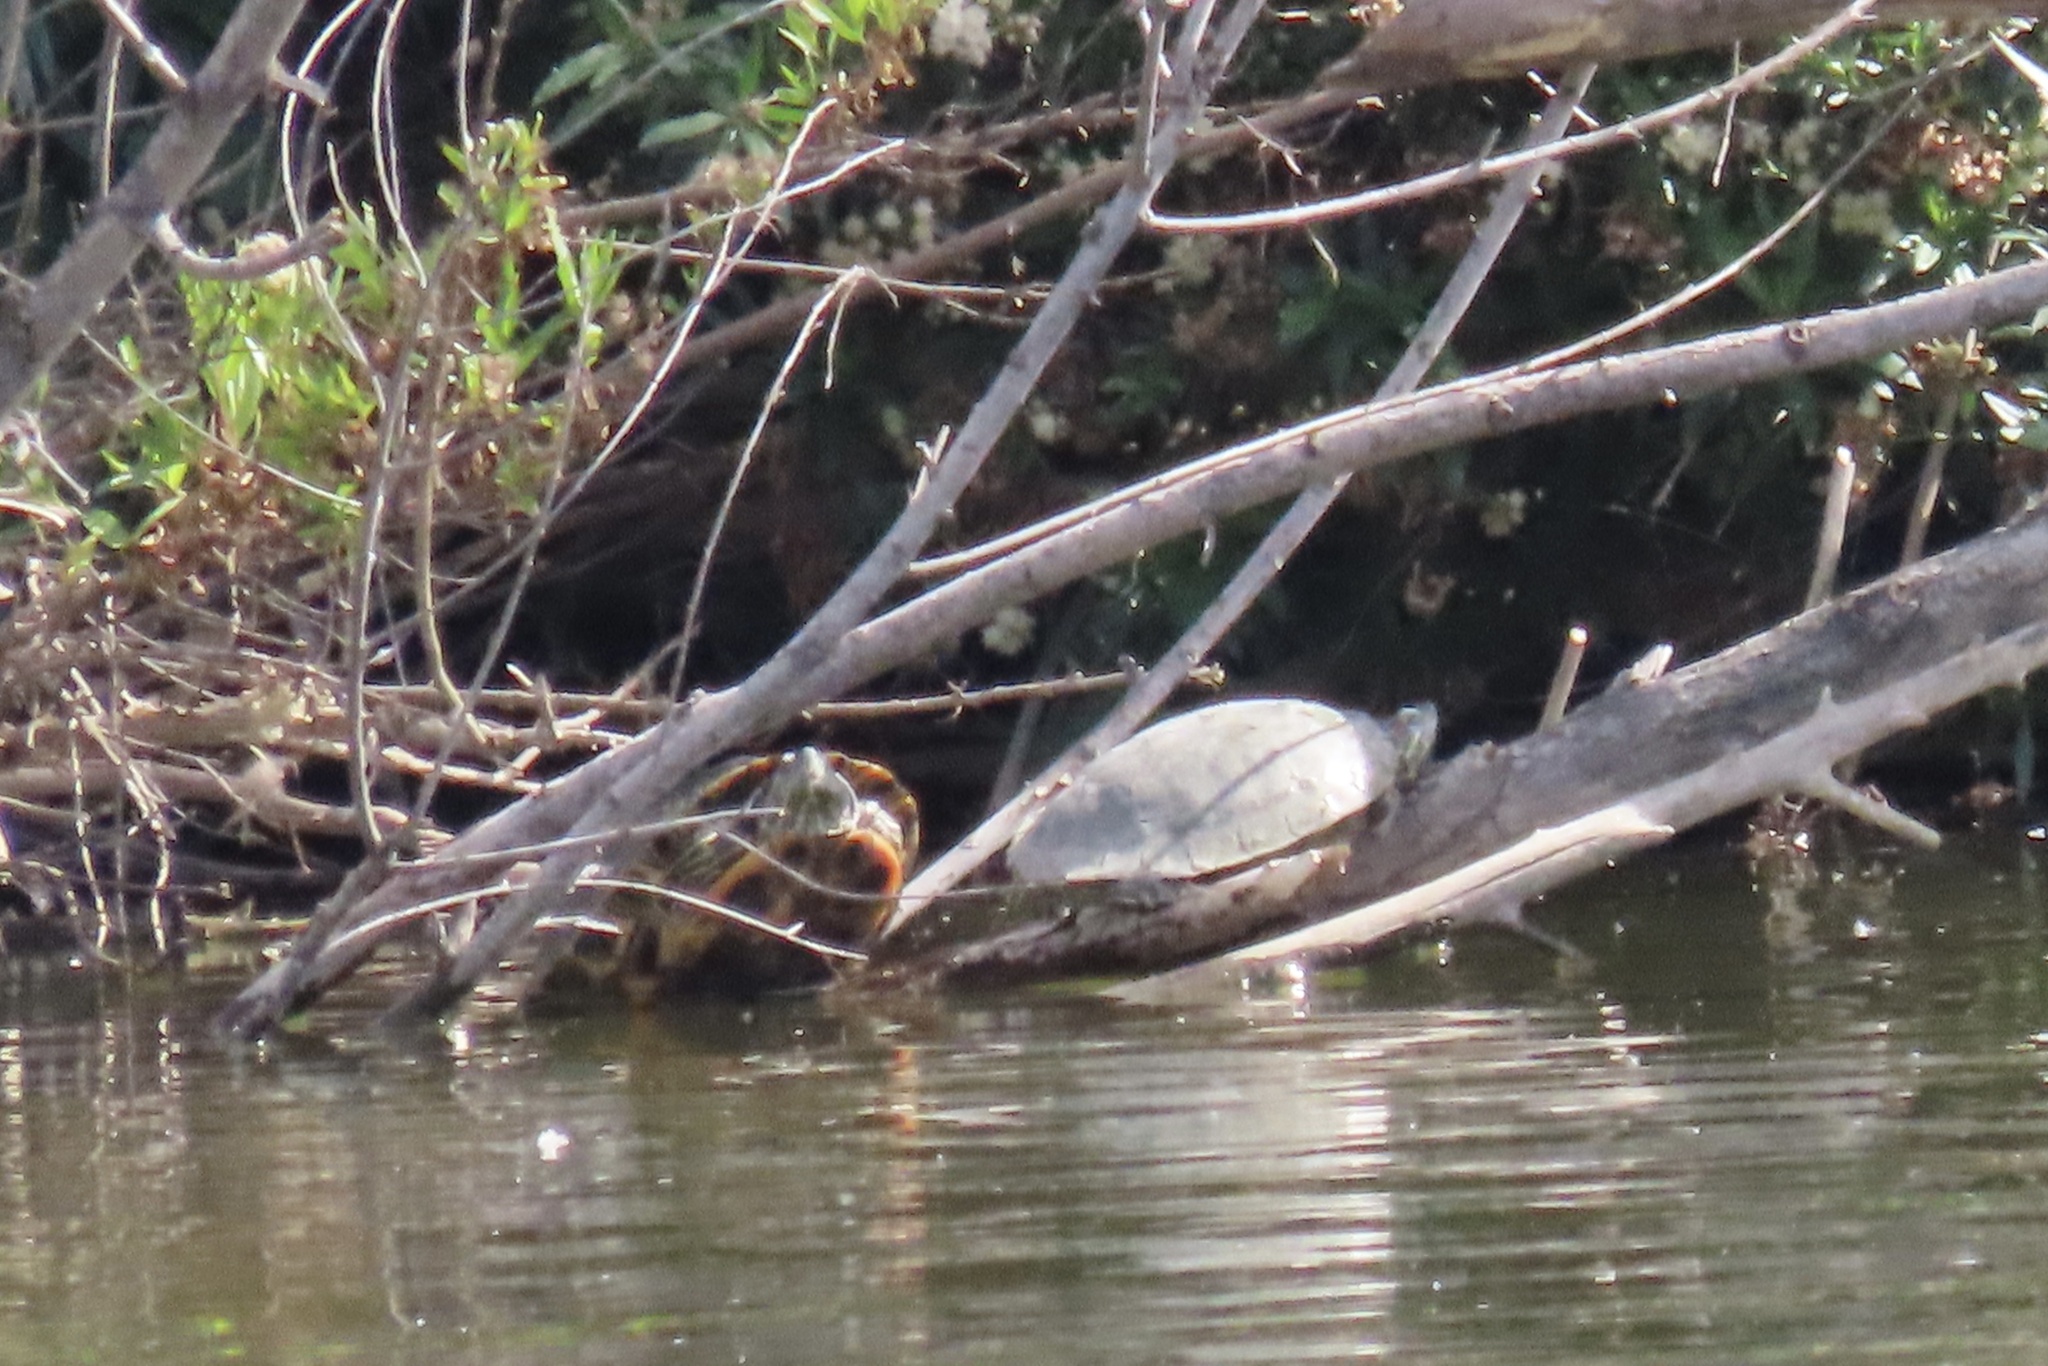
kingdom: Animalia
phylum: Chordata
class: Testudines
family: Emydidae
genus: Trachemys
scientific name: Trachemys scripta
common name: Slider
